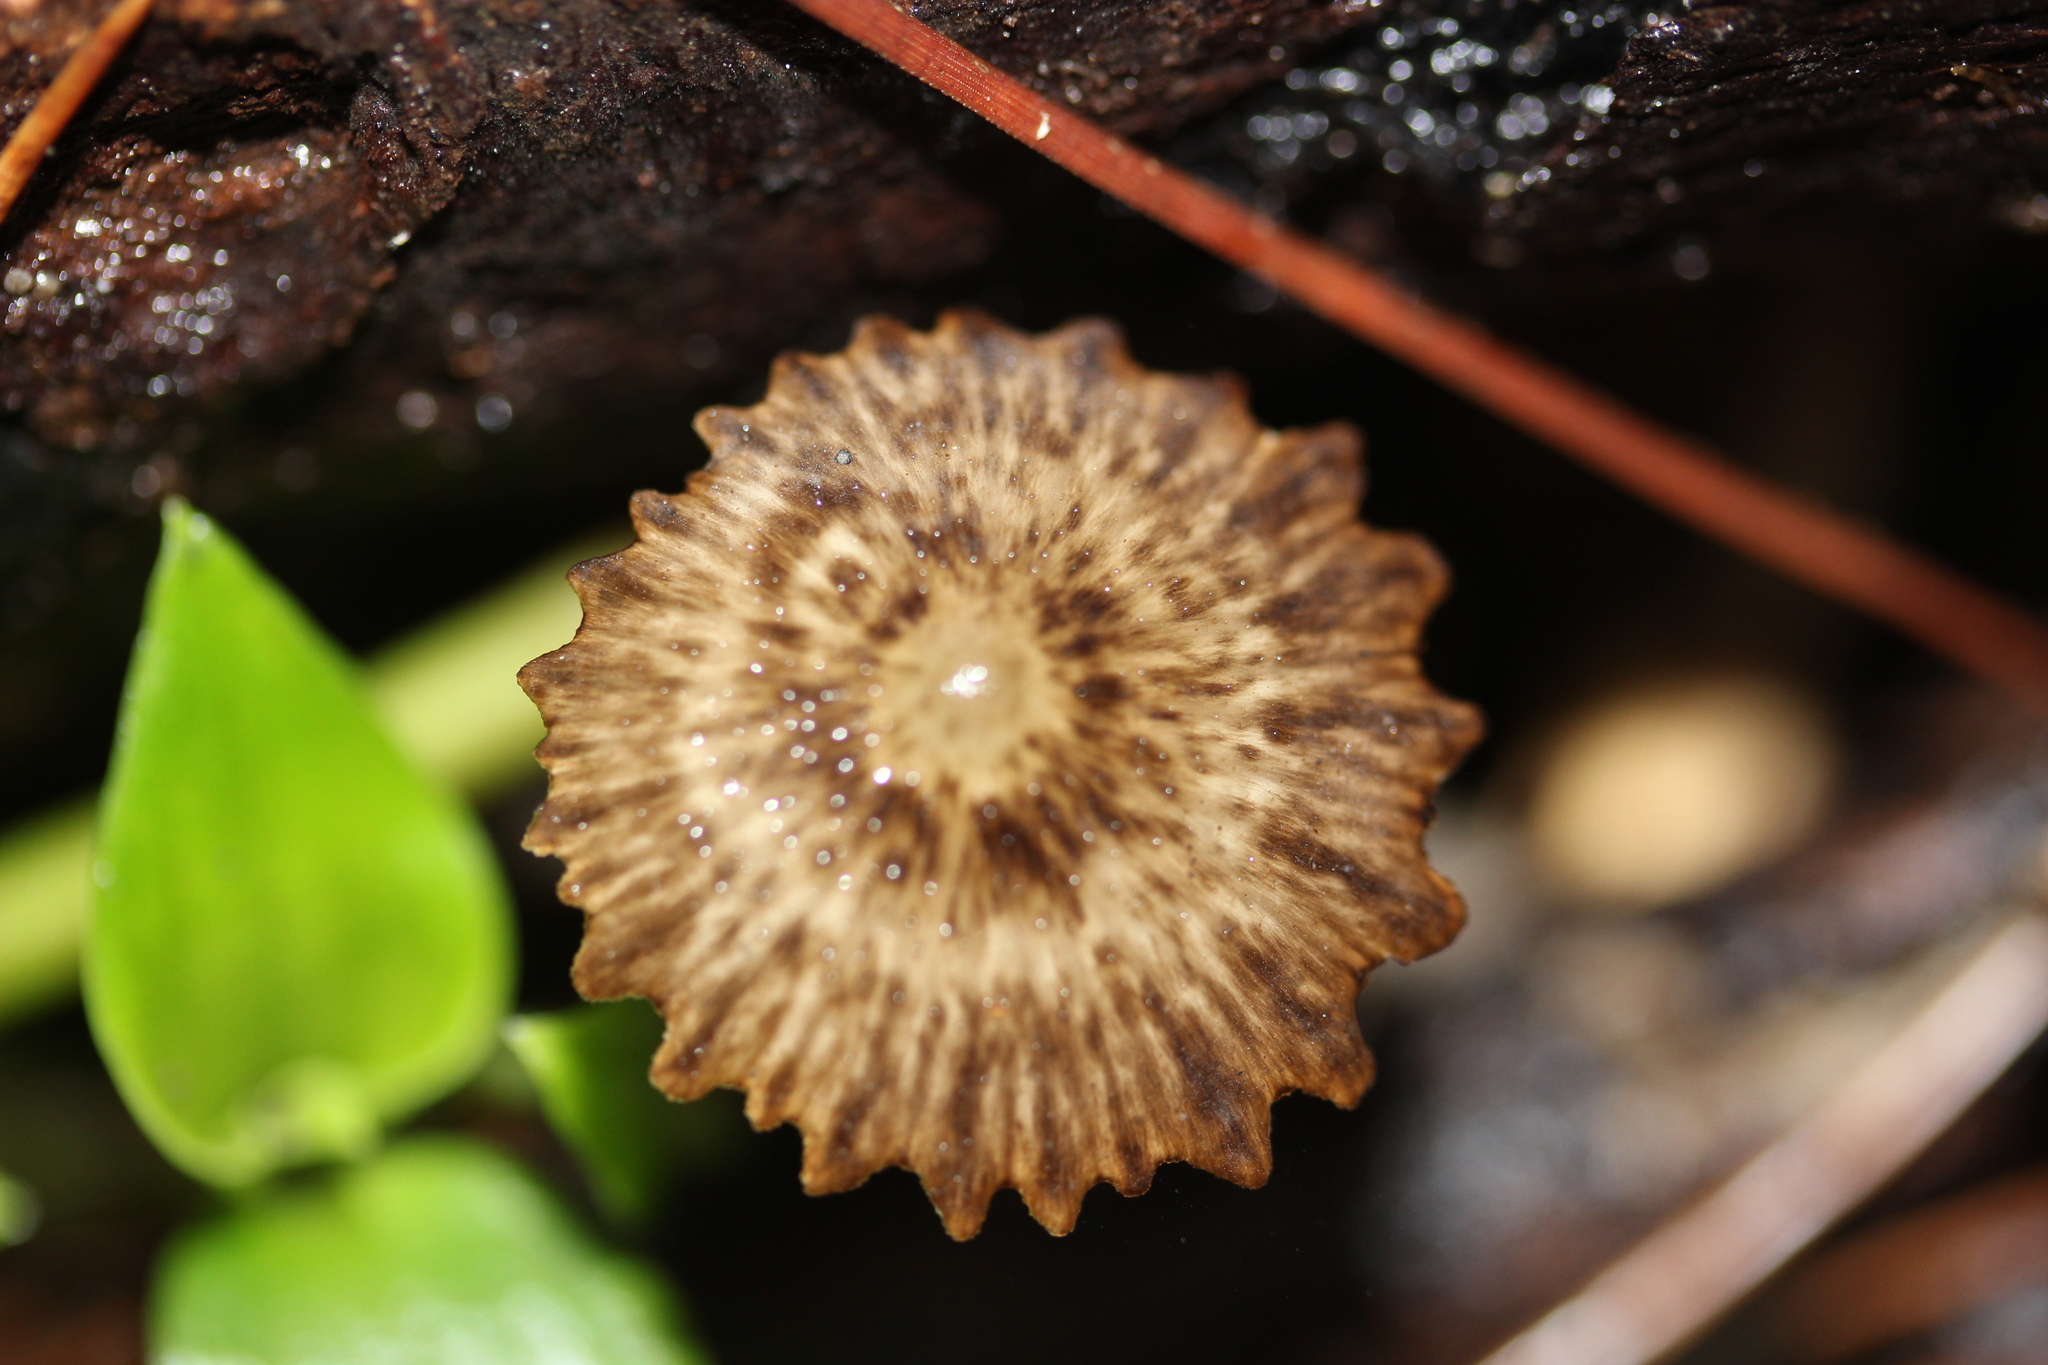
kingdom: Fungi
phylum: Basidiomycota
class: Agaricomycetes
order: Agaricales
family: Porotheleaceae
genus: Pseudohydropus
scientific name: Pseudohydropus parafunebris
